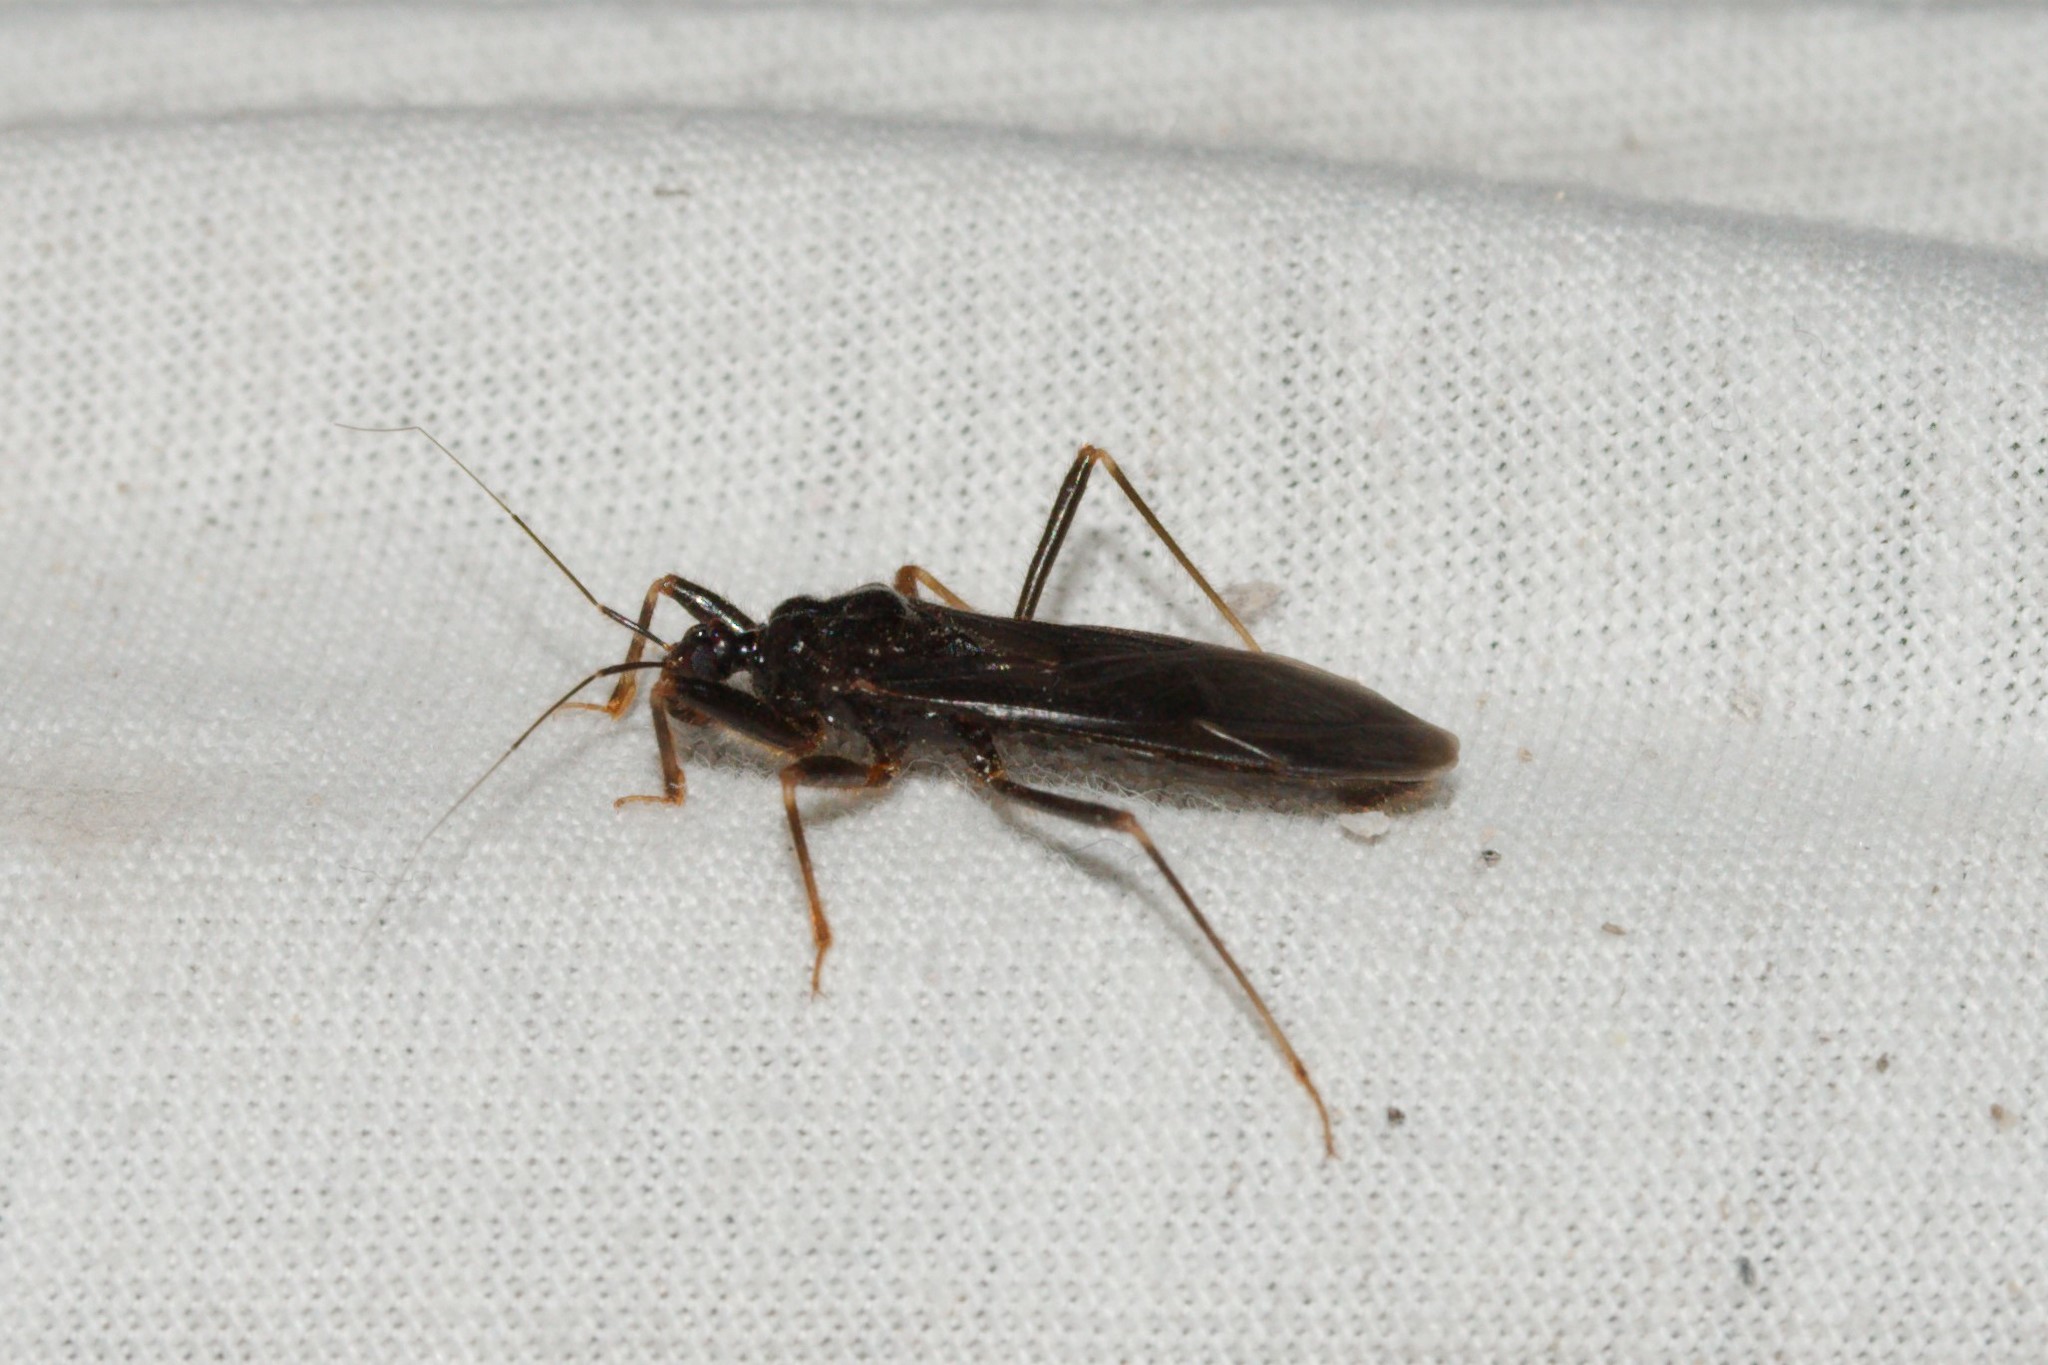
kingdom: Animalia
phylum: Arthropoda
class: Insecta
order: Hemiptera
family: Reduviidae
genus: Reduvius
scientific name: Reduvius personatus
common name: Masked hunter
